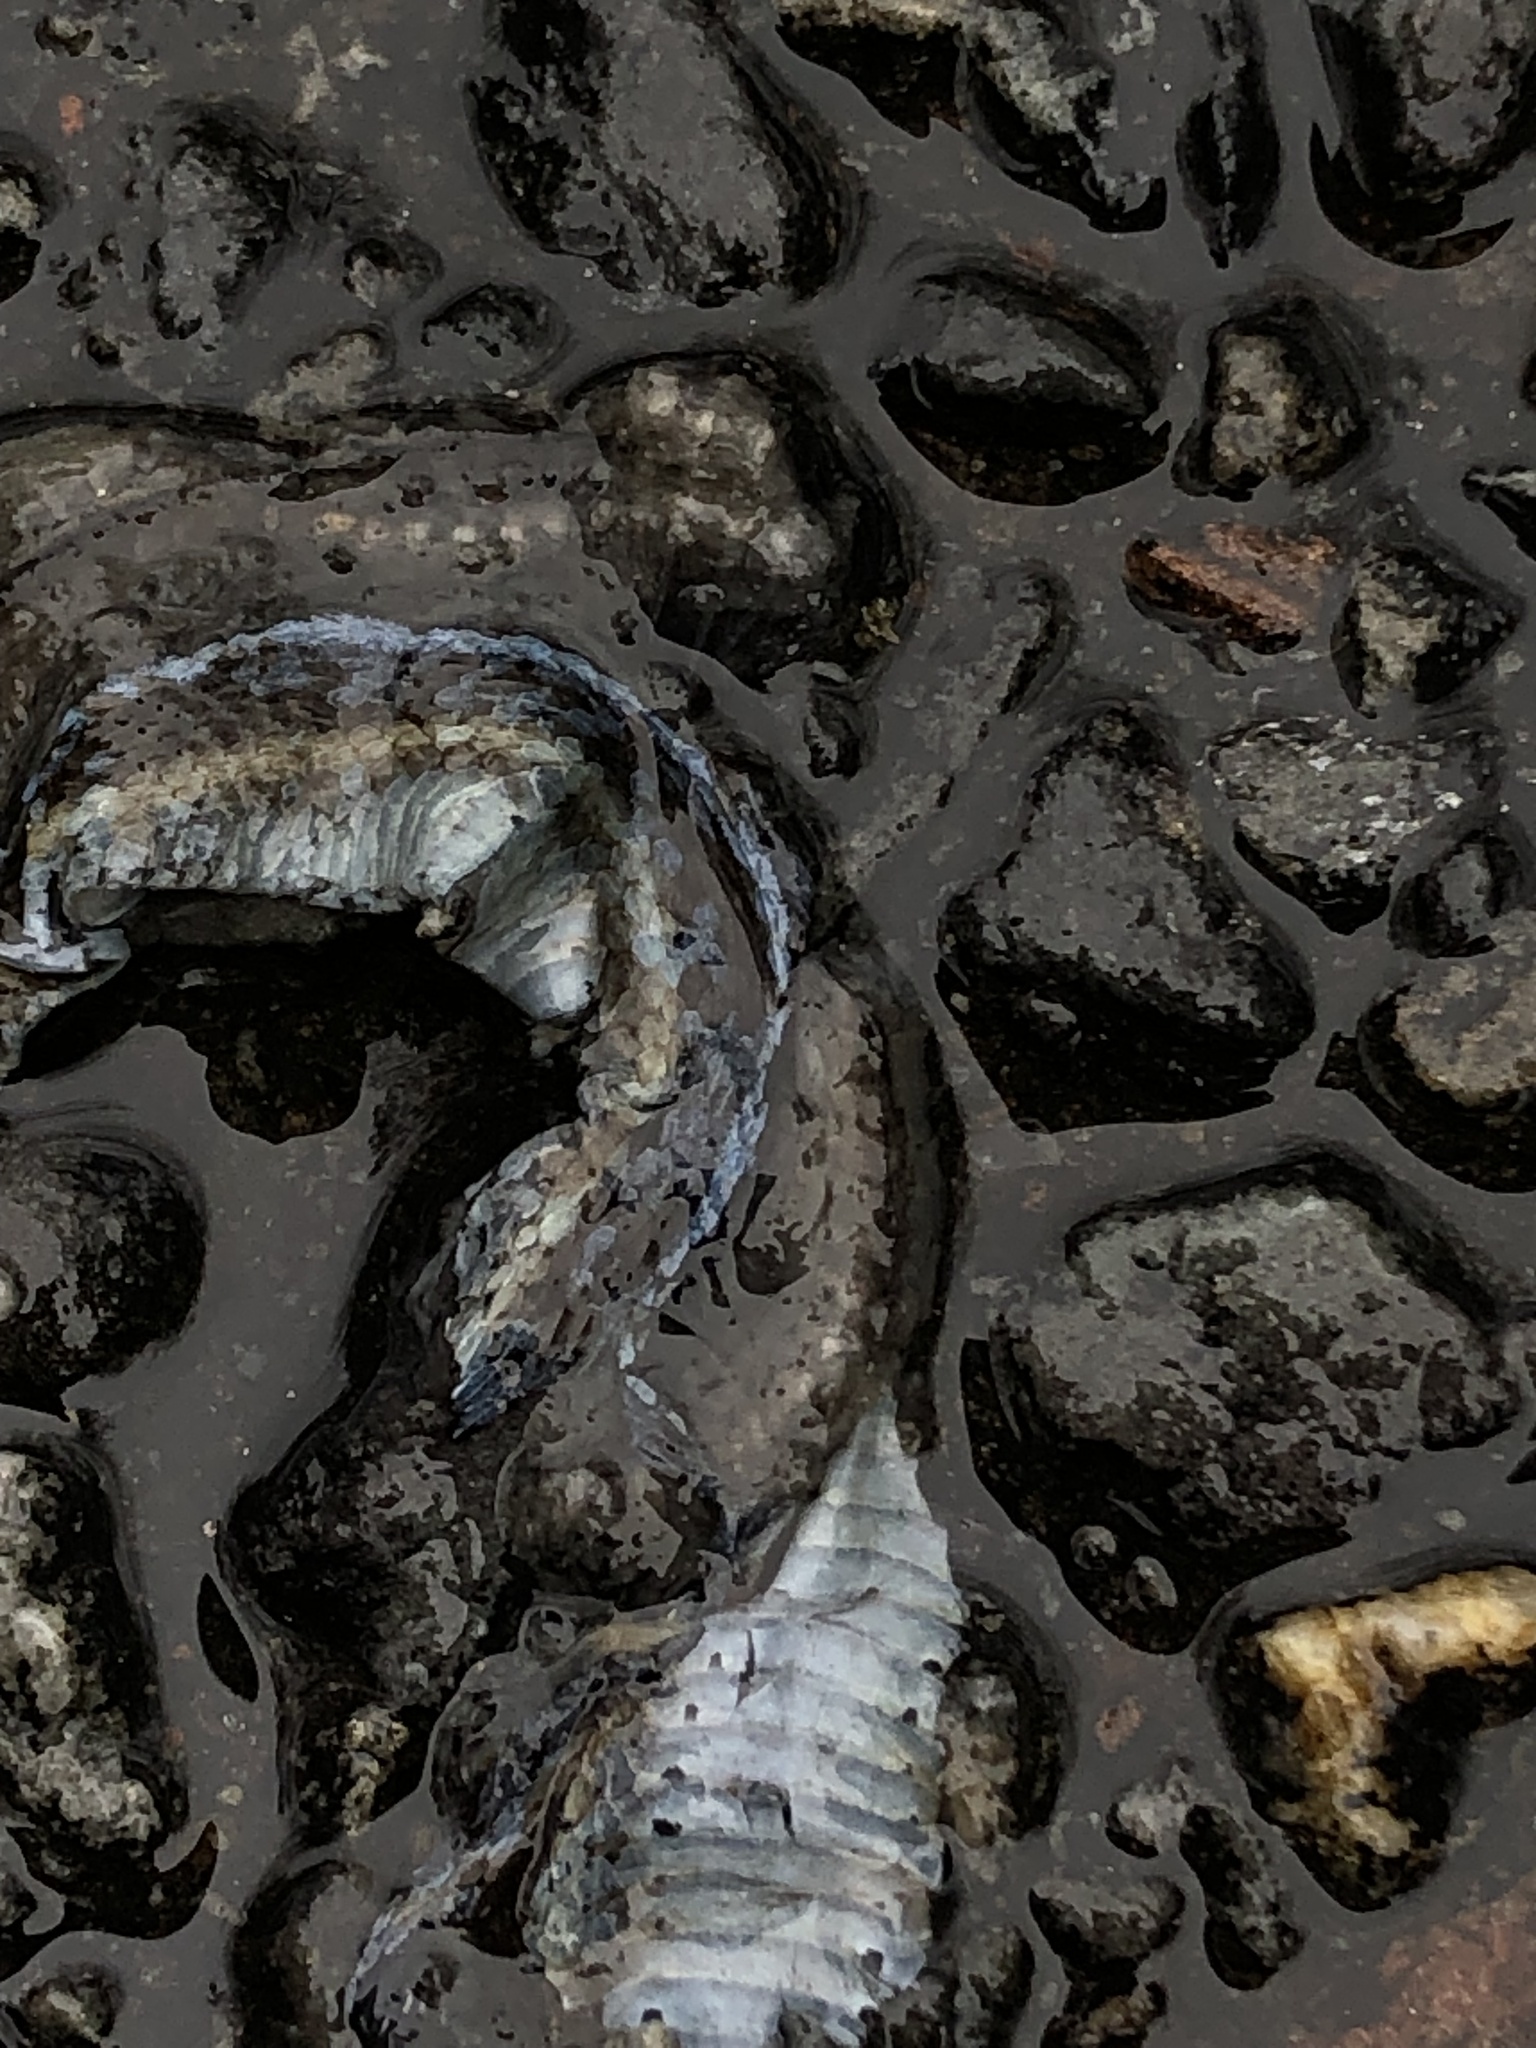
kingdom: Animalia
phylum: Chordata
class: Squamata
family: Colubridae
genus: Thamnophis
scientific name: Thamnophis sirtalis
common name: Common garter snake
